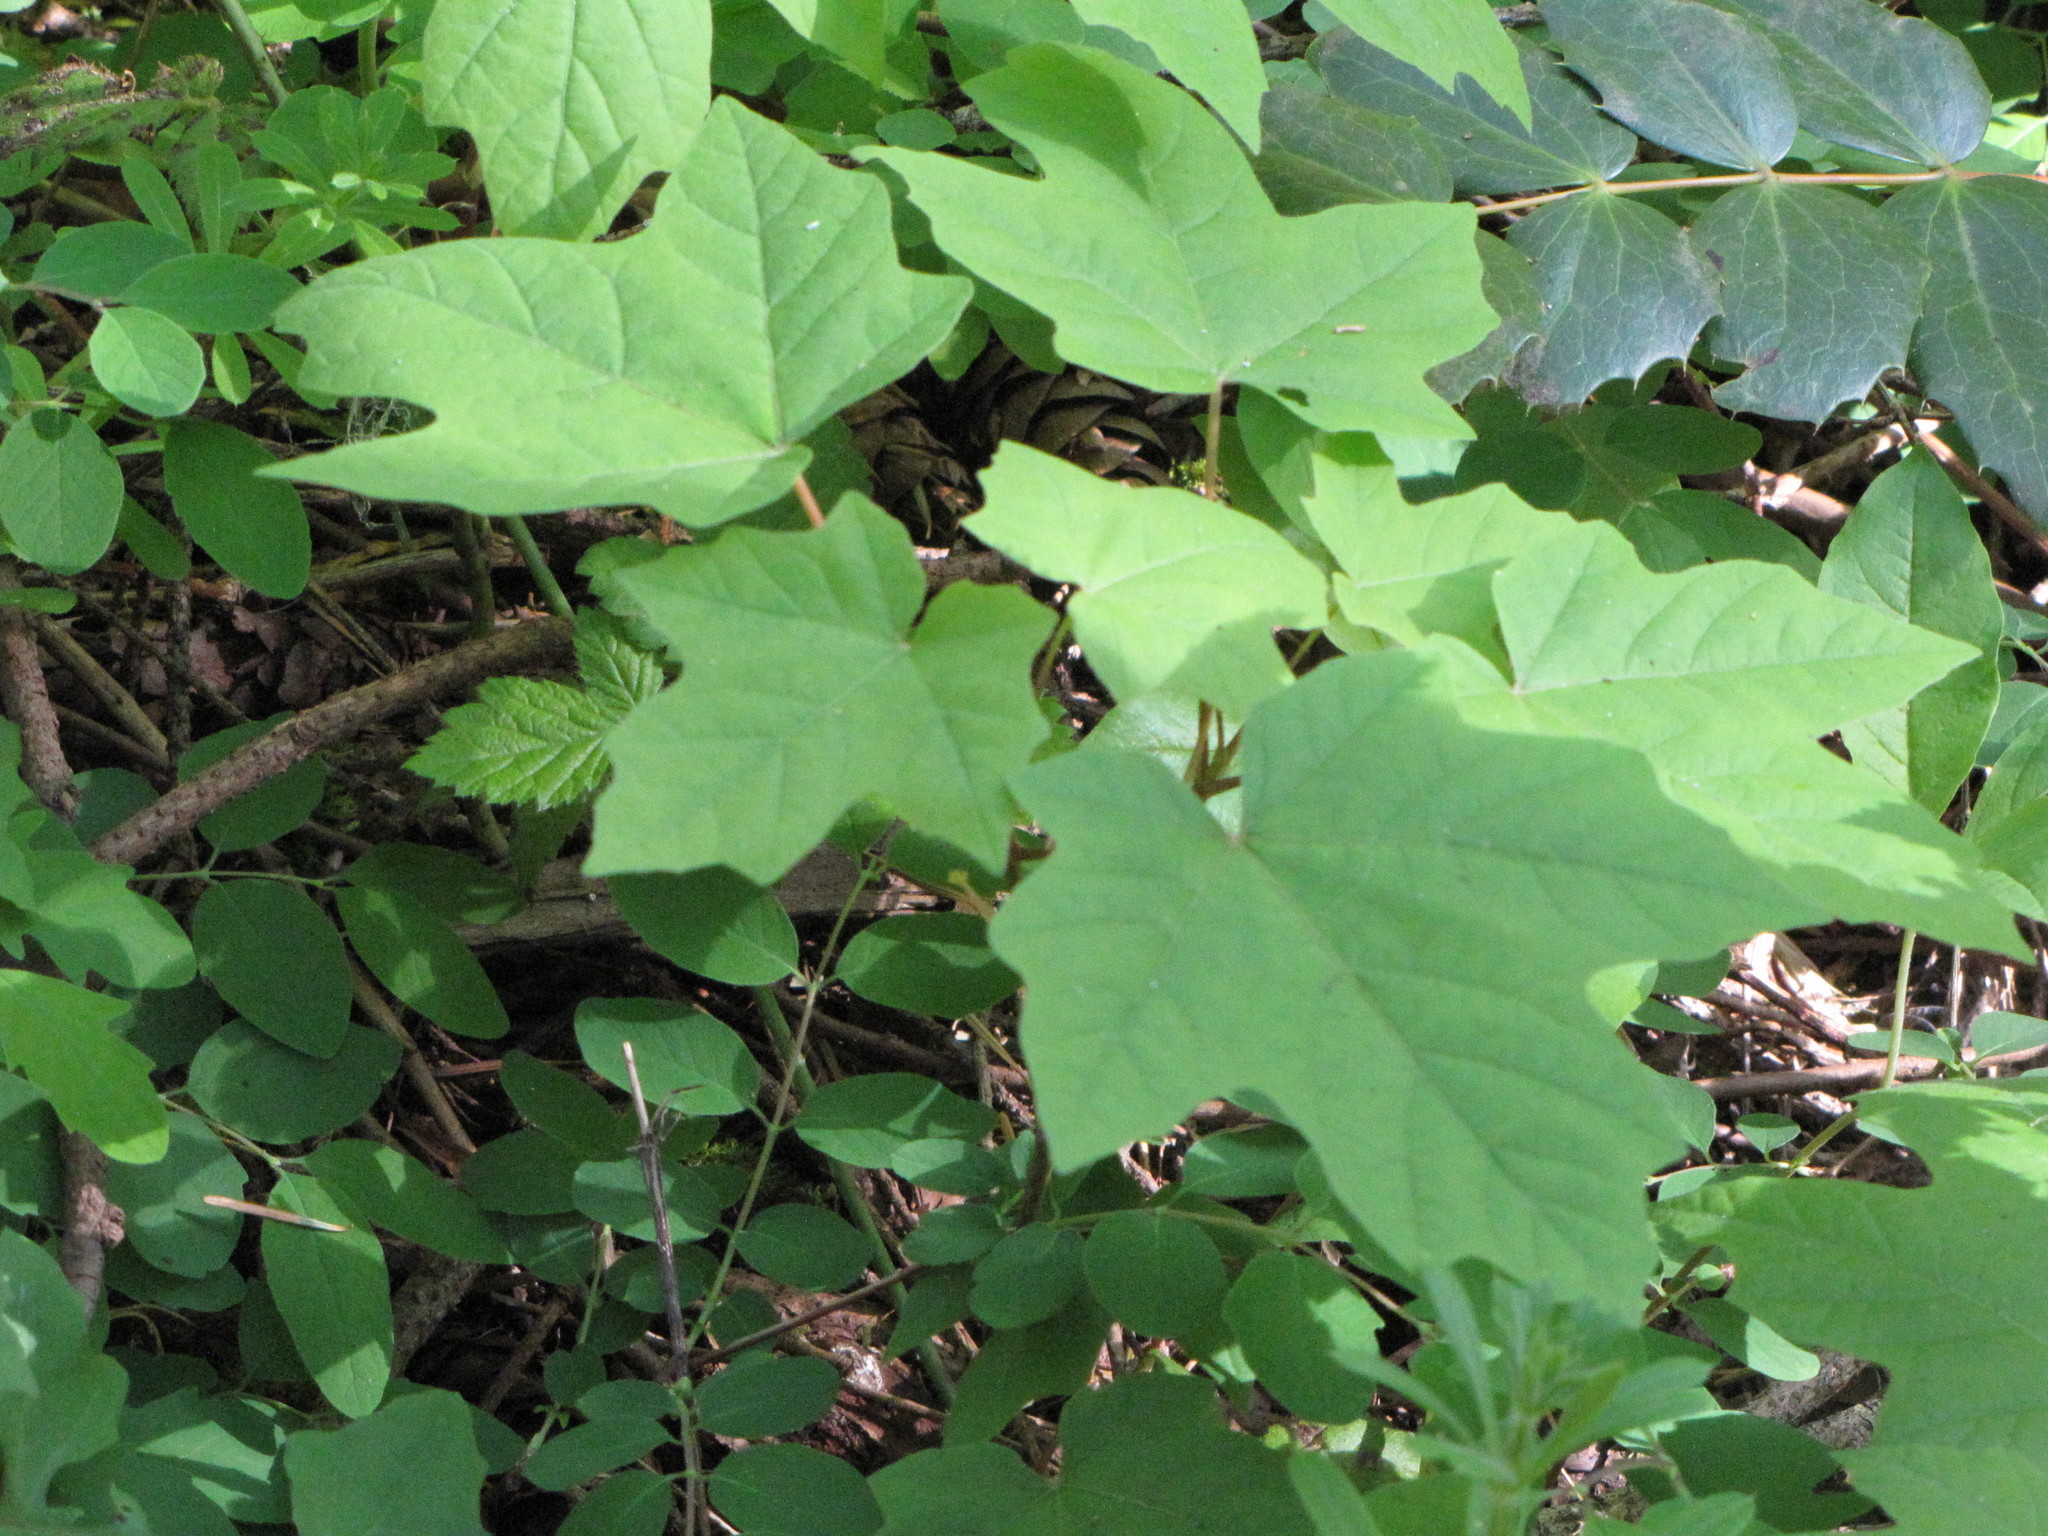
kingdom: Plantae
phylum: Tracheophyta
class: Magnoliopsida
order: Sapindales
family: Sapindaceae
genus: Acer
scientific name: Acer macrophyllum
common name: Oregon maple
